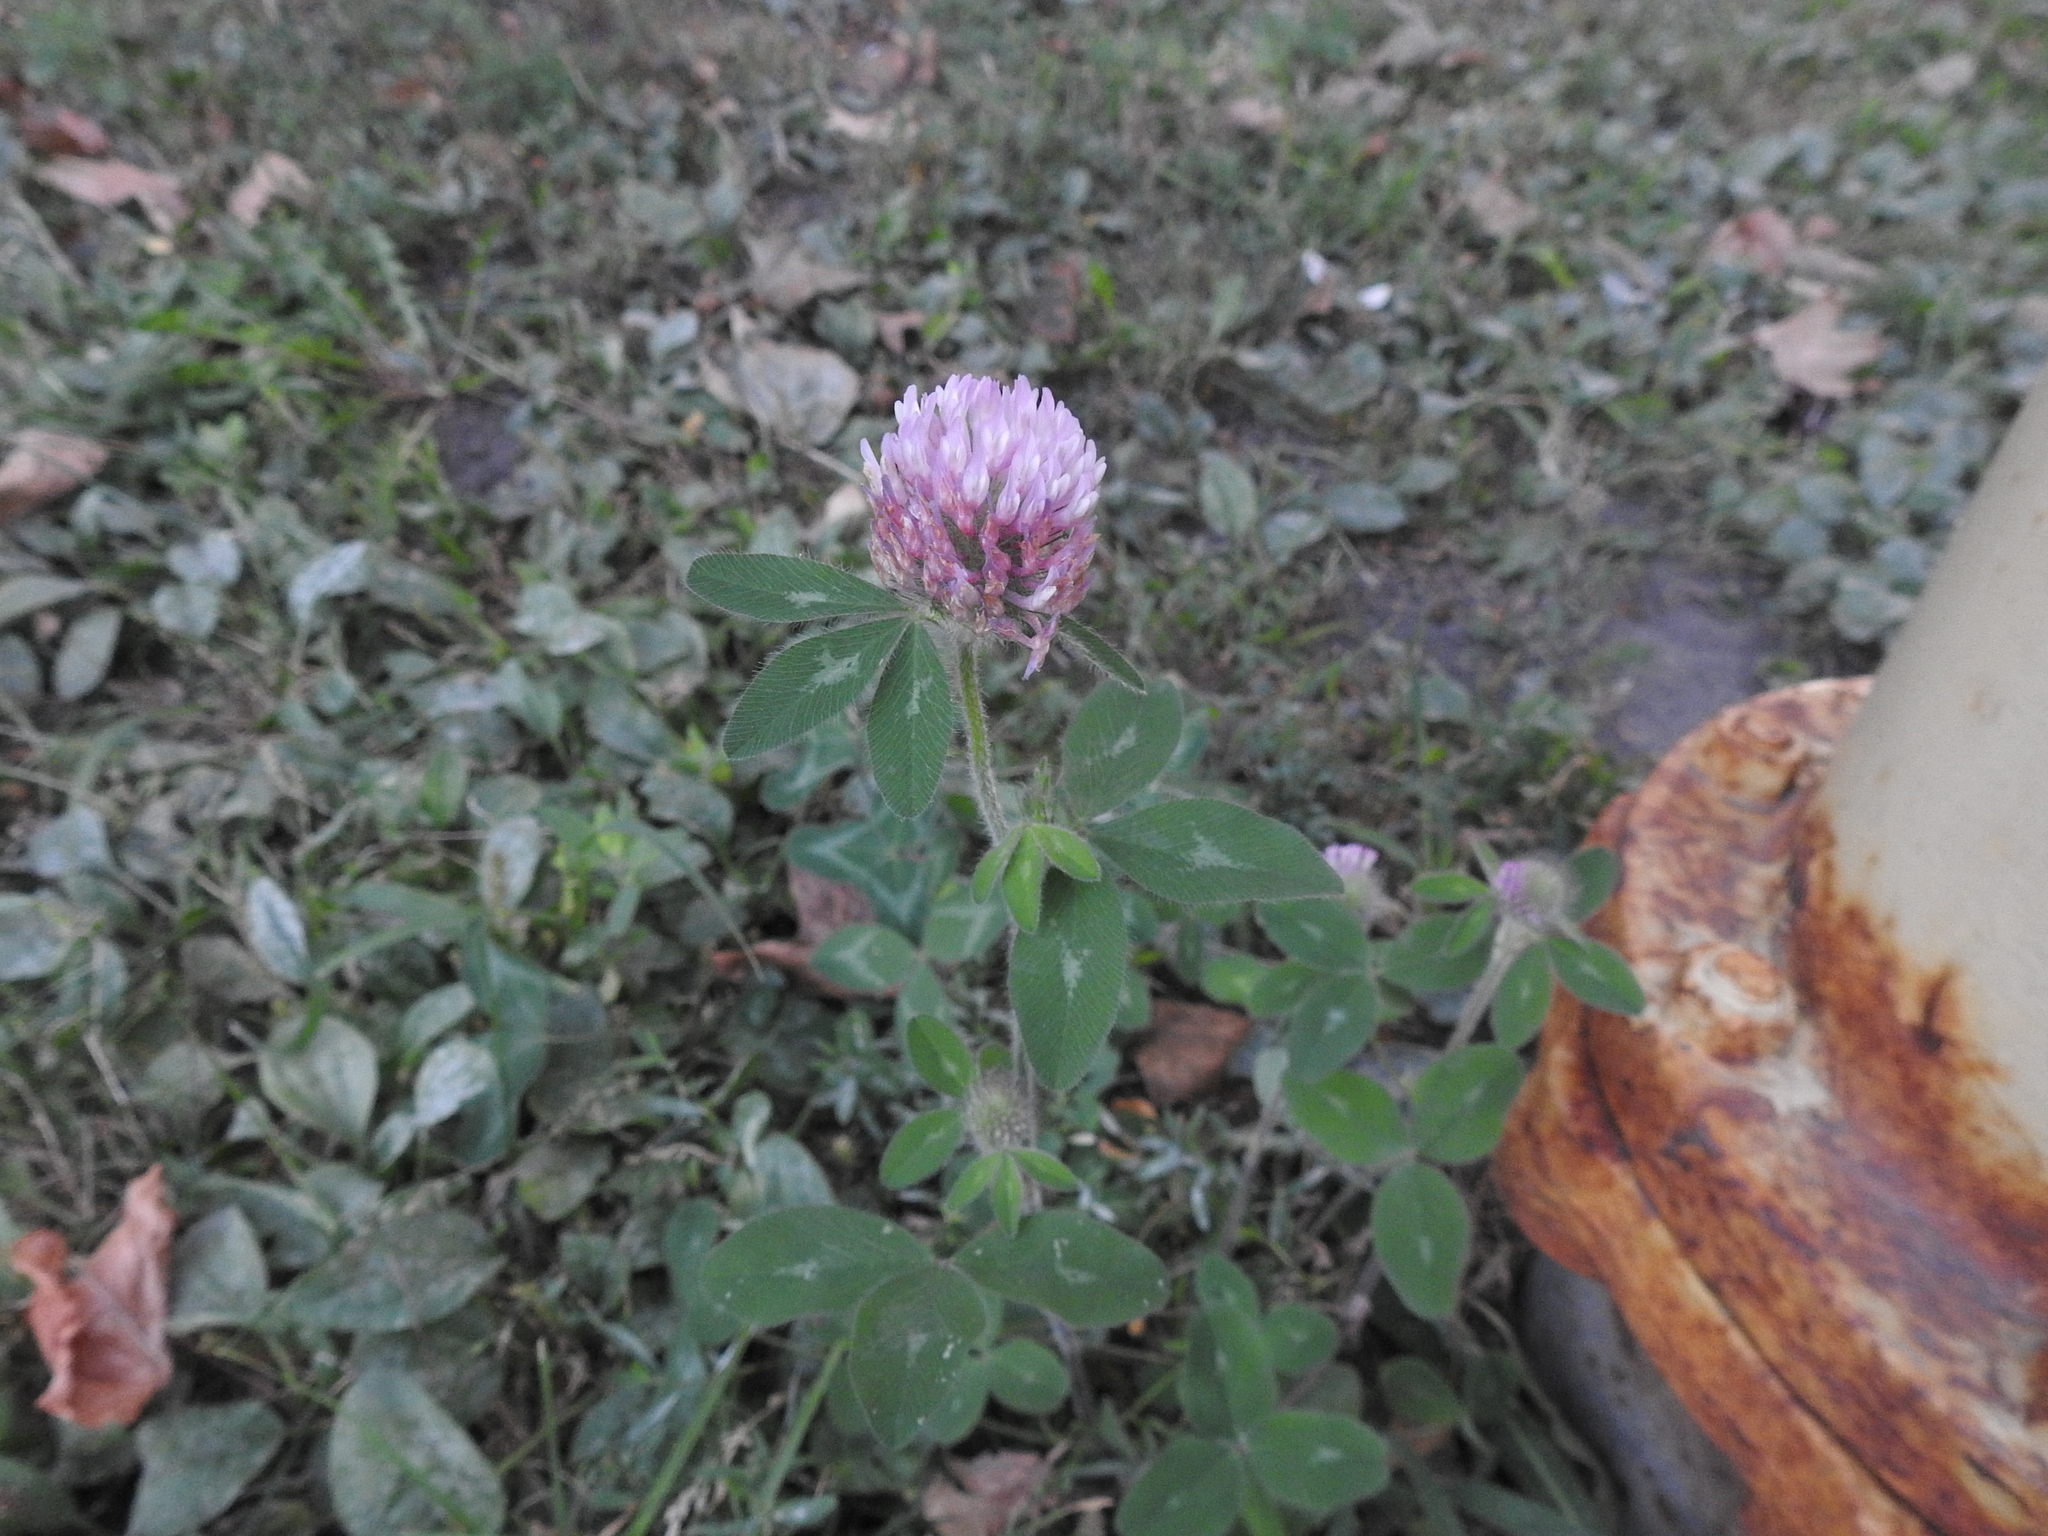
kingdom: Plantae
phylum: Tracheophyta
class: Magnoliopsida
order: Fabales
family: Fabaceae
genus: Trifolium
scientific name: Trifolium pratense
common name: Red clover
